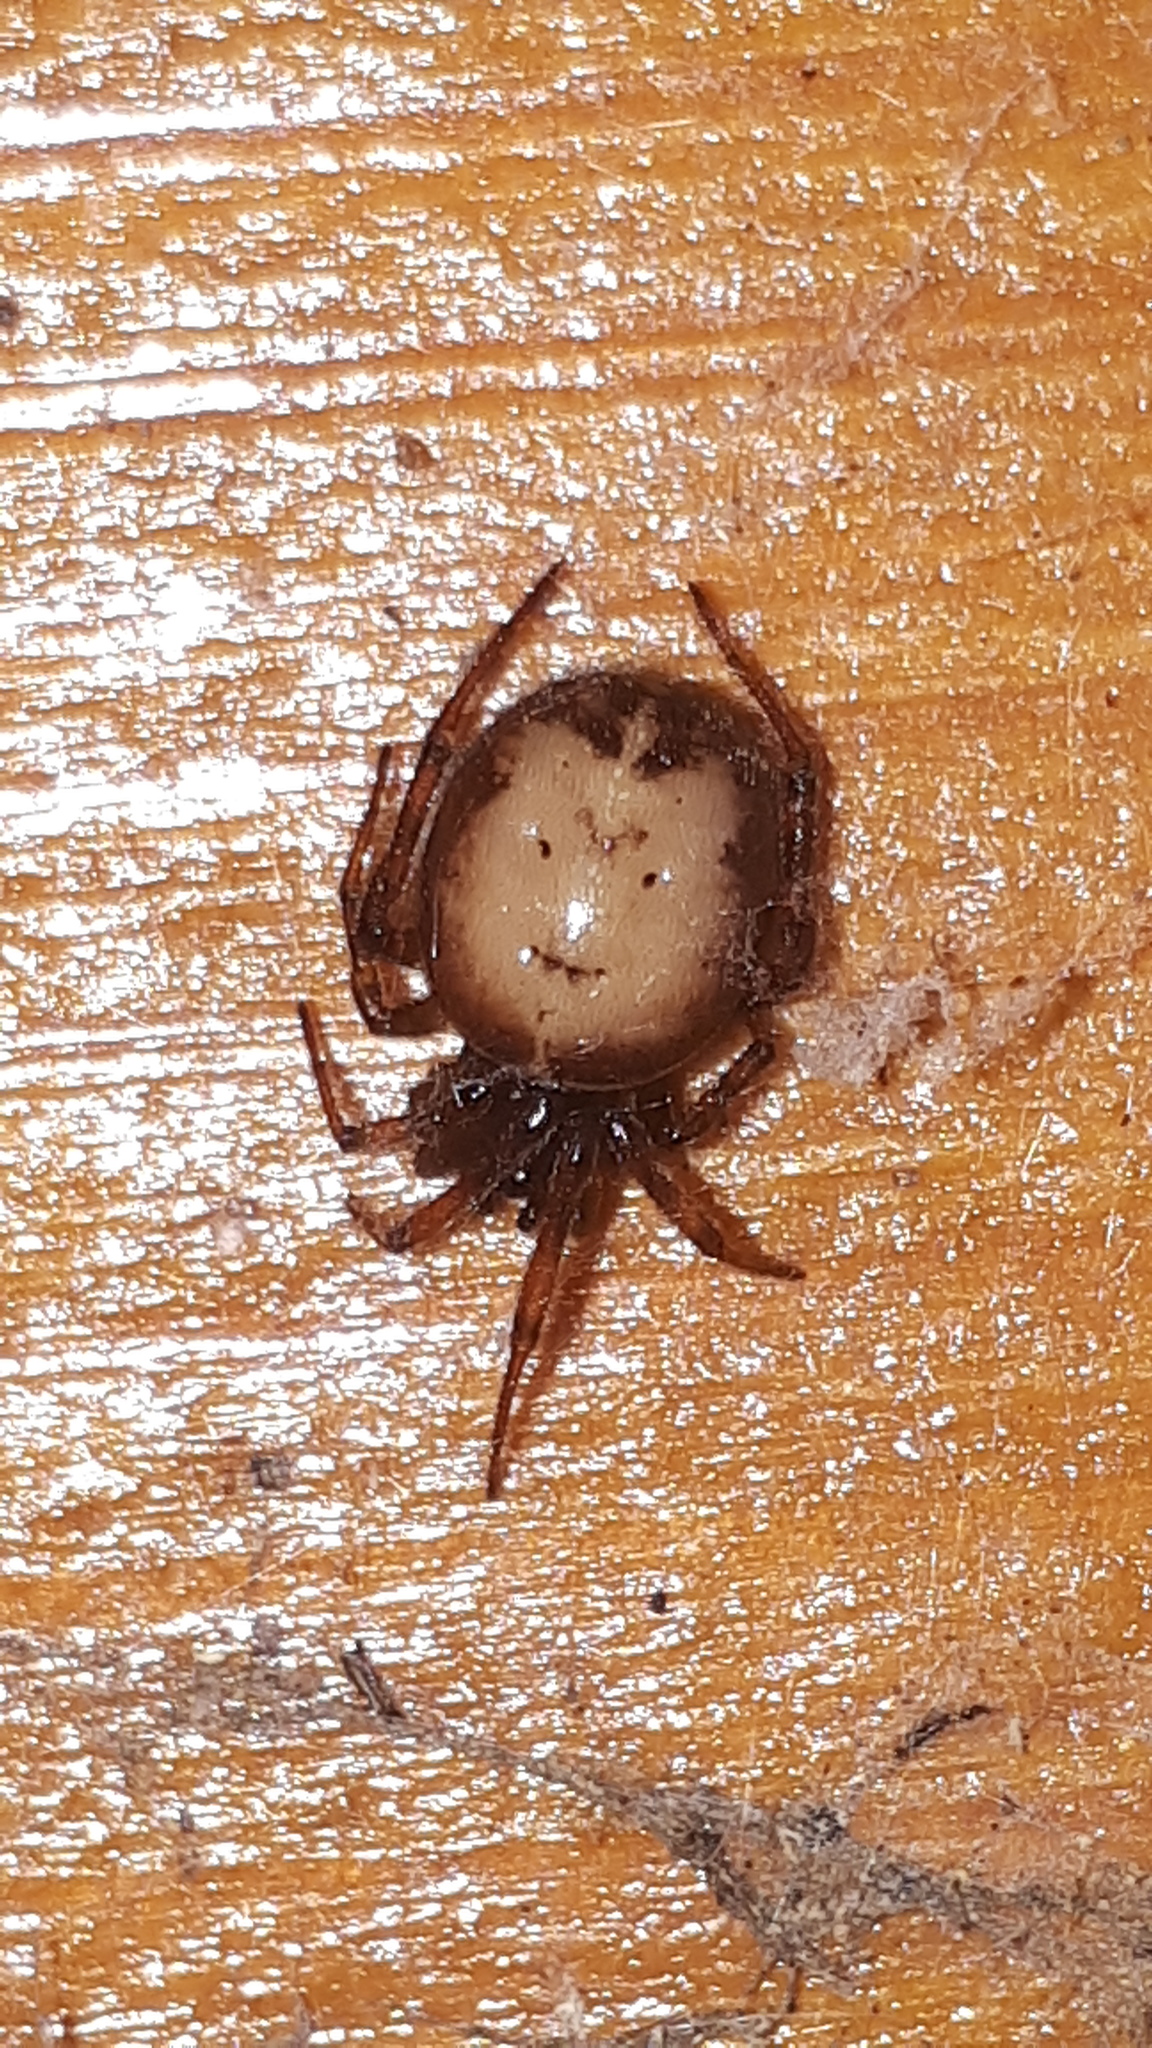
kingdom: Animalia
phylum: Arthropoda
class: Arachnida
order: Araneae
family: Theridiidae
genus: Steatoda
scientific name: Steatoda bipunctata
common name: False widow
